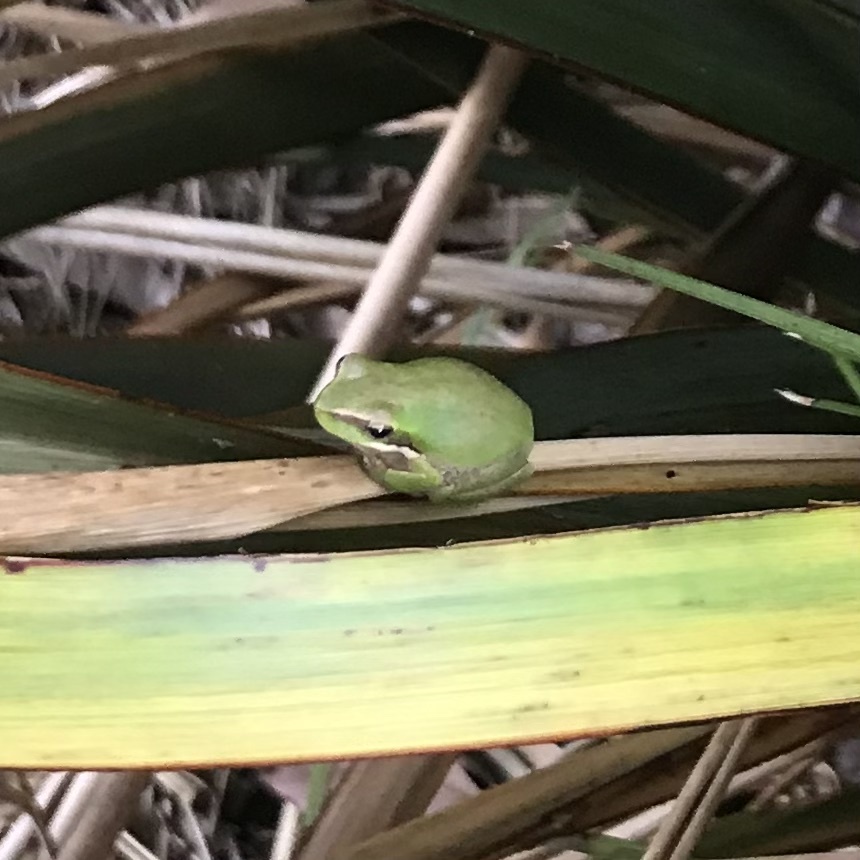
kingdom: Animalia
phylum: Chordata
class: Amphibia
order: Anura
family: Pelodryadidae
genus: Litoria
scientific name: Litoria fallax
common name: Eastern dwarf treefrog
